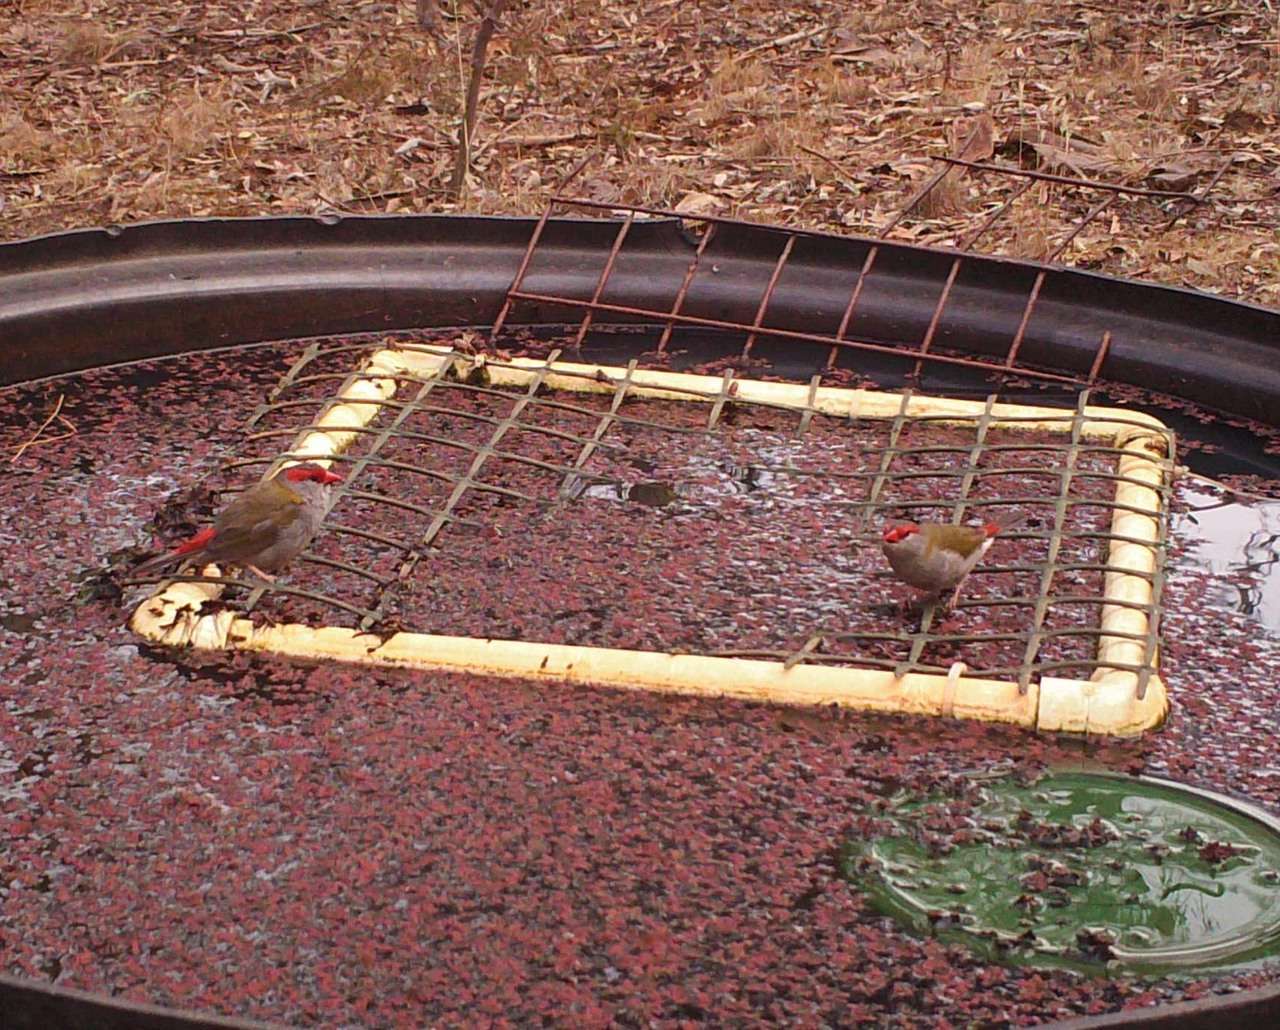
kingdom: Animalia
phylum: Chordata
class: Aves
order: Passeriformes
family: Estrildidae
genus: Neochmia
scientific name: Neochmia temporalis
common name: Red-browed finch
